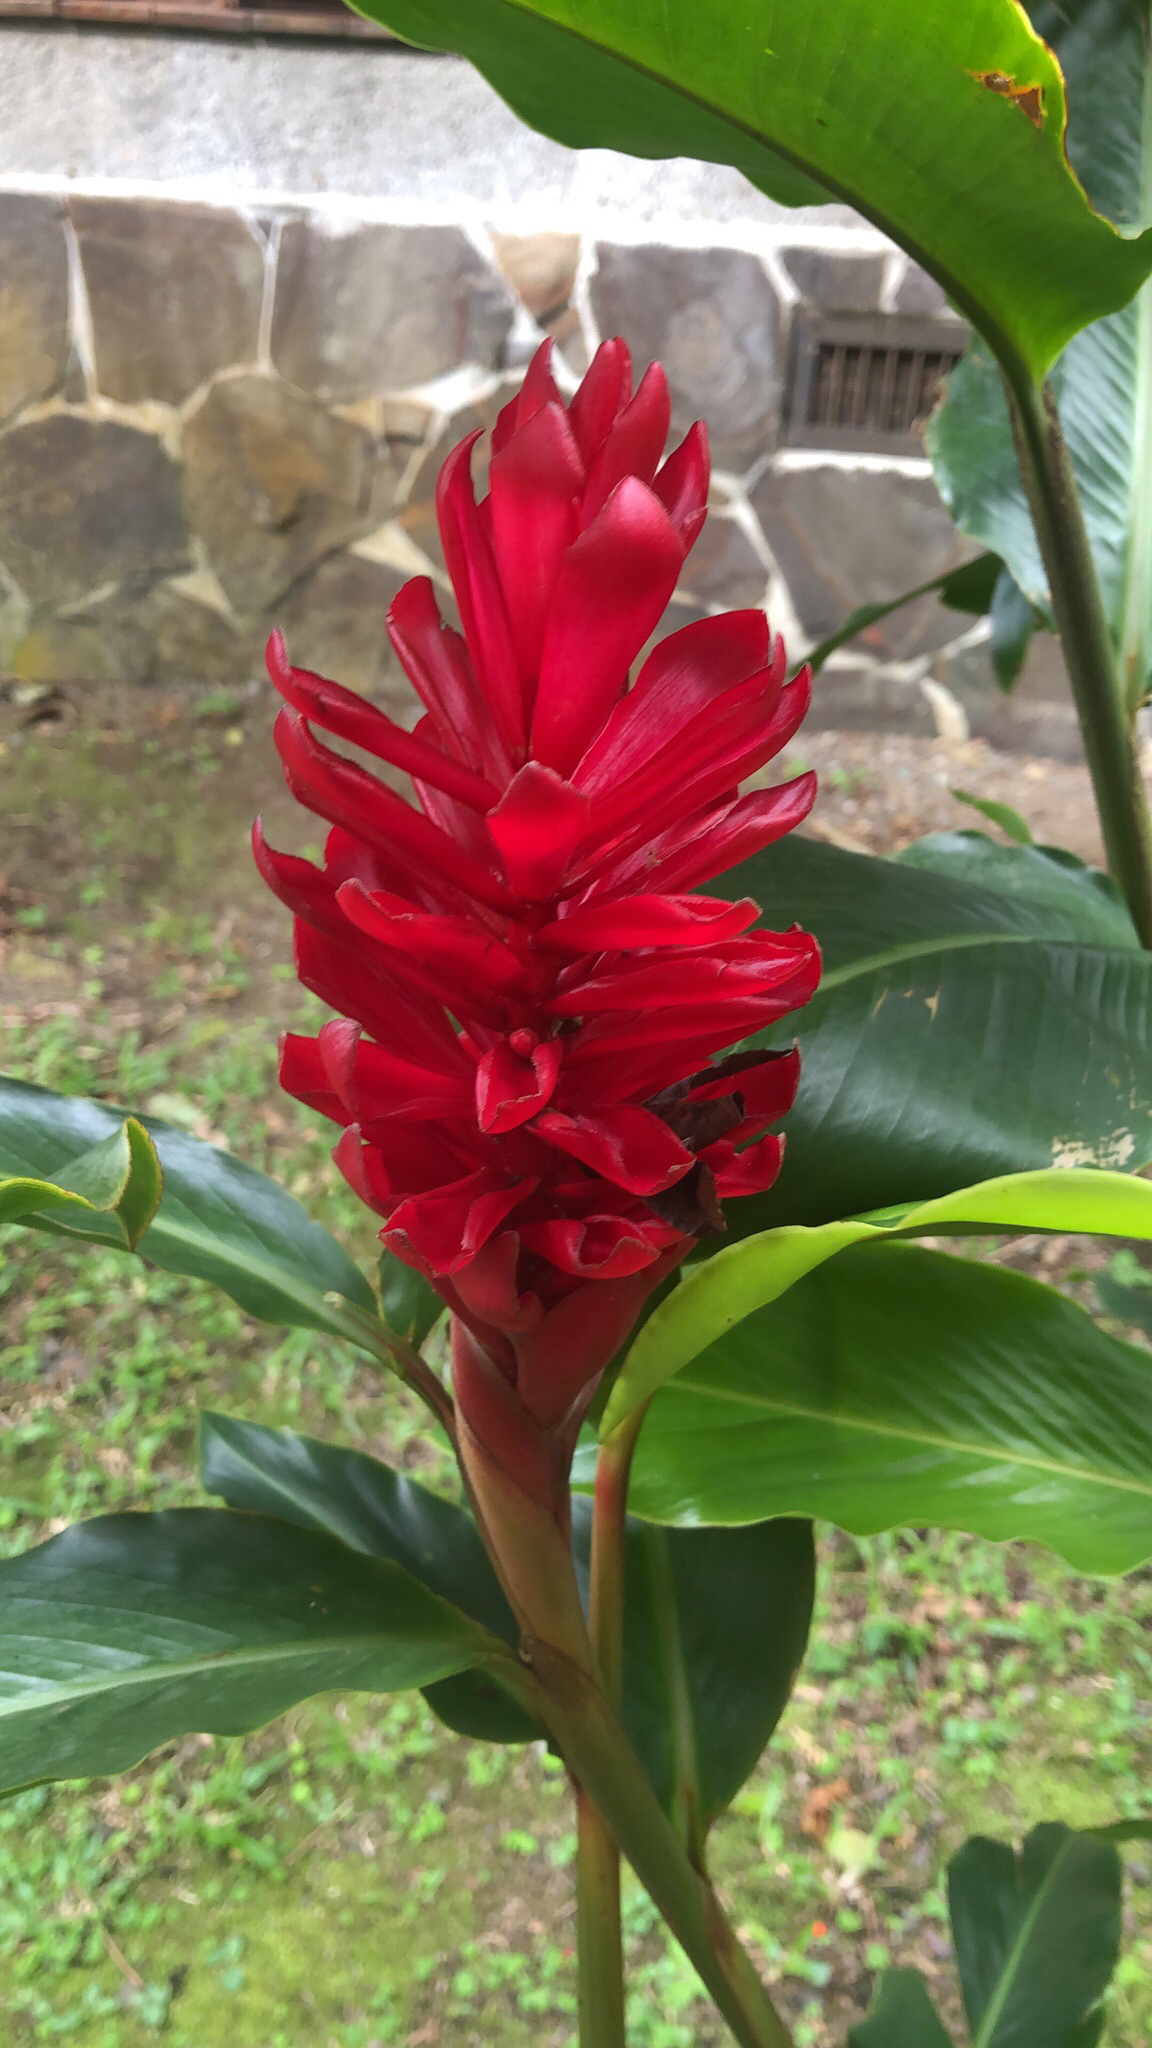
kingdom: Plantae
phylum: Tracheophyta
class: Liliopsida
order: Zingiberales
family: Zingiberaceae
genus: Alpinia
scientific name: Alpinia purpurata
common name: Red ginger
